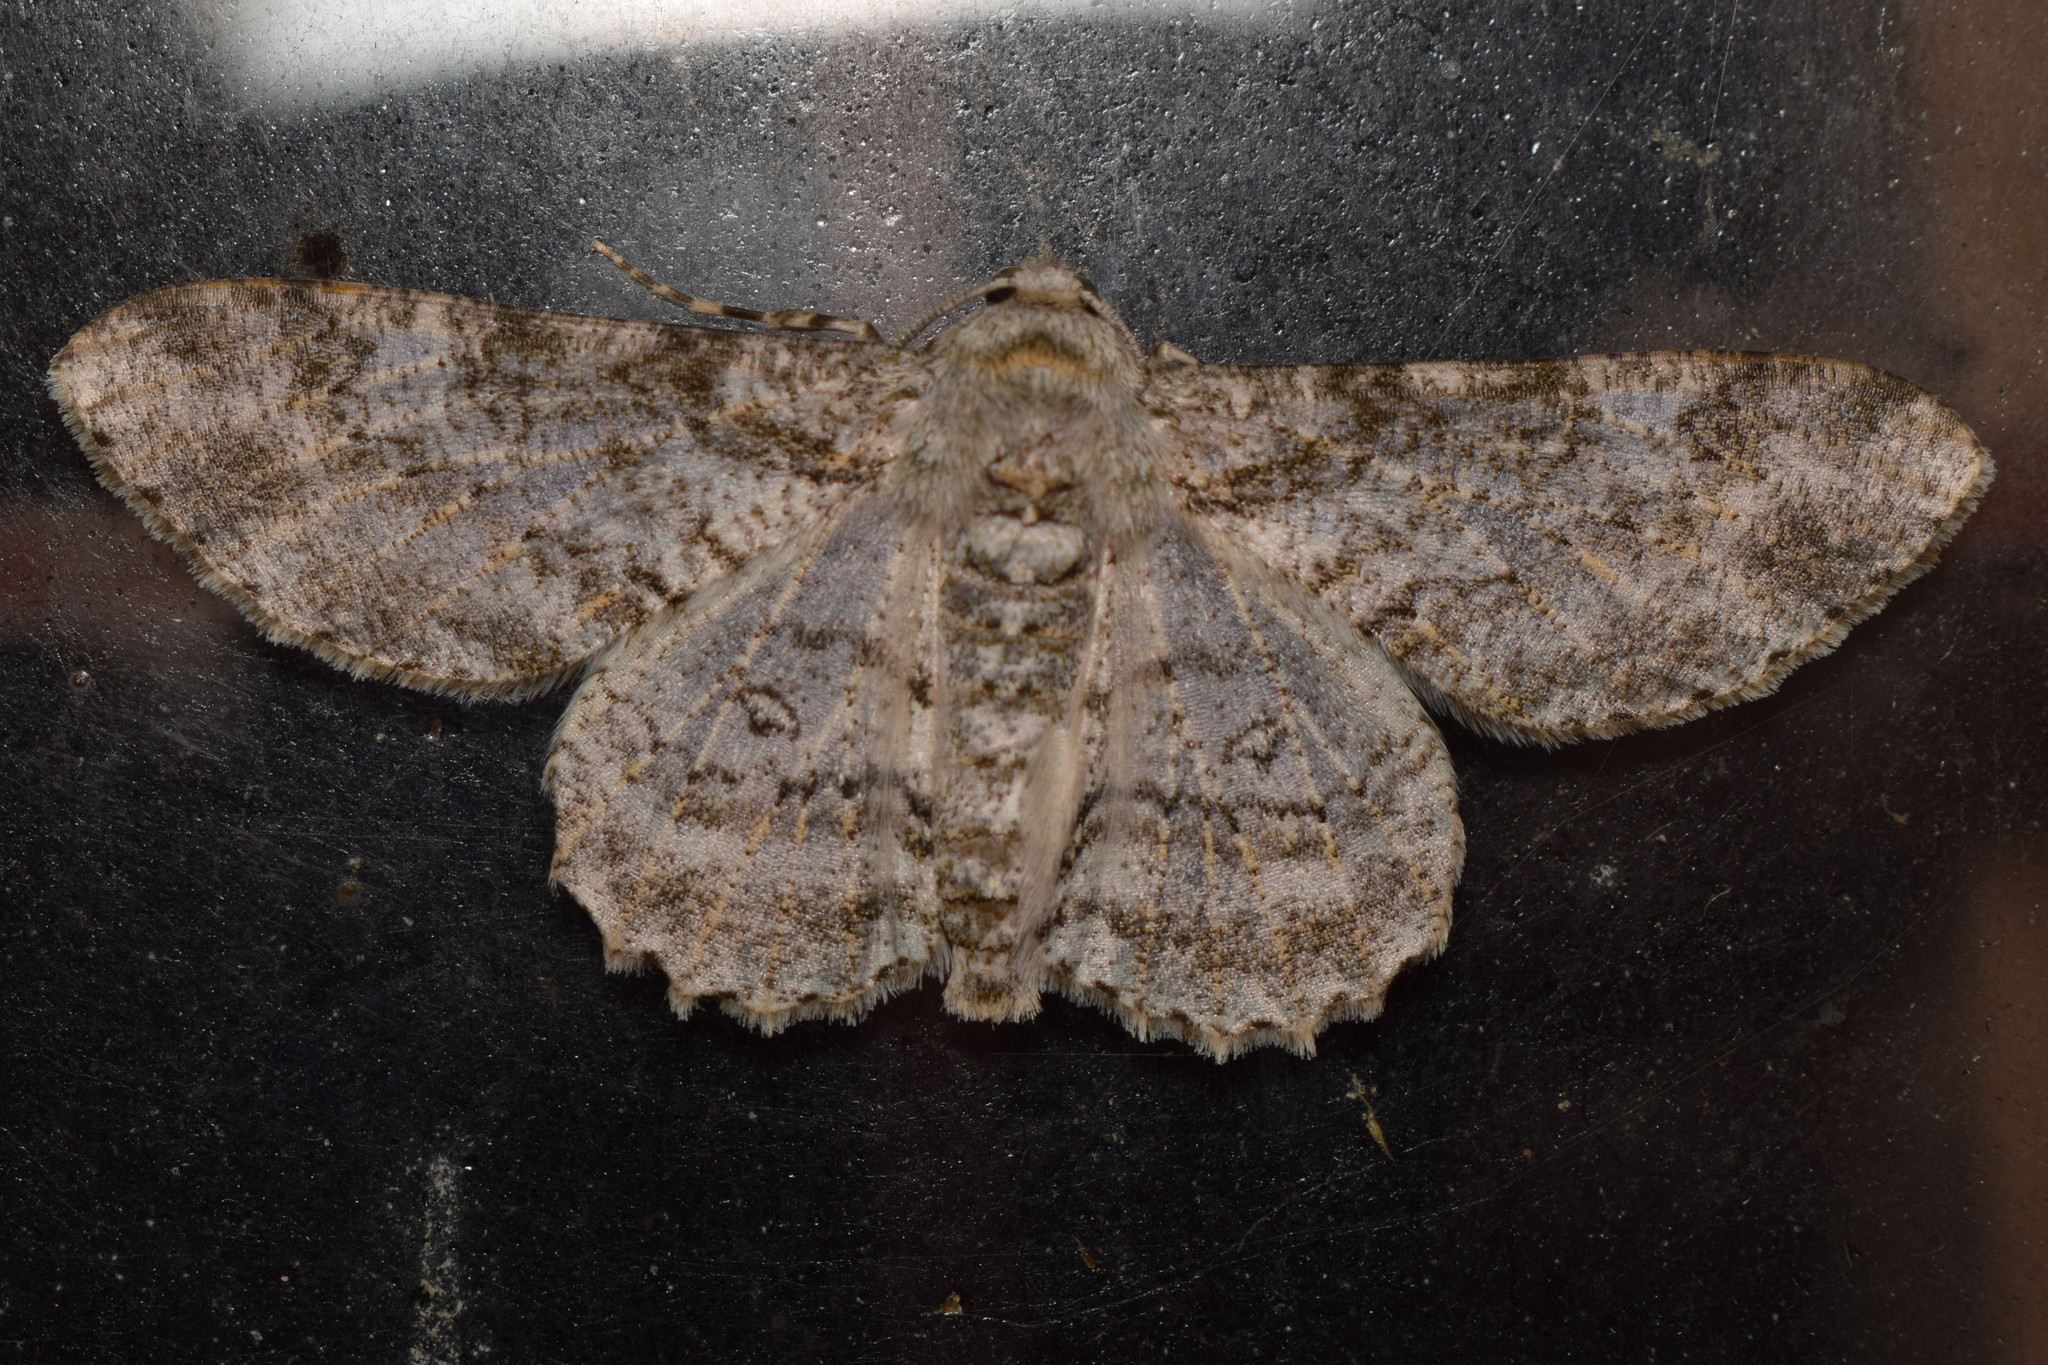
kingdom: Animalia
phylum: Arthropoda
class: Insecta
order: Lepidoptera
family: Geometridae
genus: Ascotis
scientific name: Ascotis selenaria
